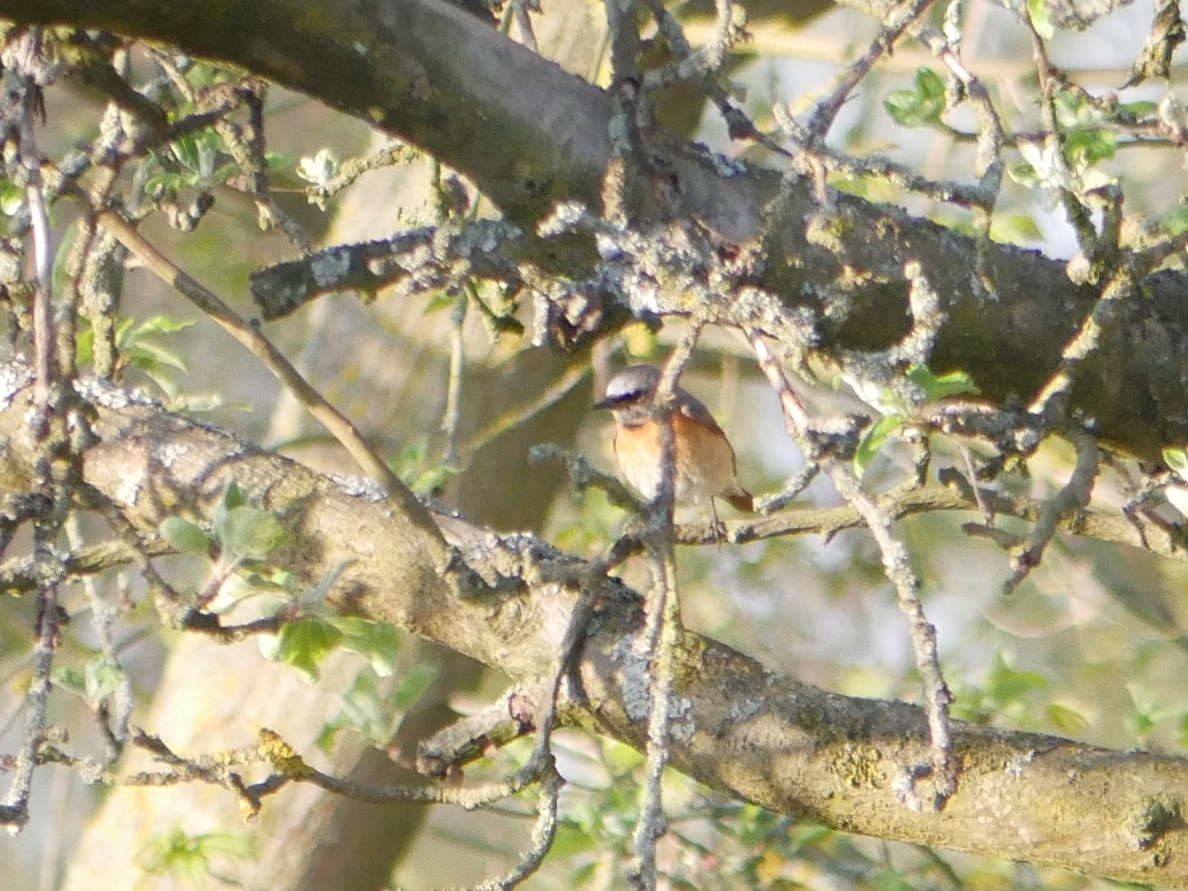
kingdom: Animalia
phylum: Chordata
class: Aves
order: Passeriformes
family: Muscicapidae
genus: Phoenicurus
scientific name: Phoenicurus phoenicurus
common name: Common redstart
